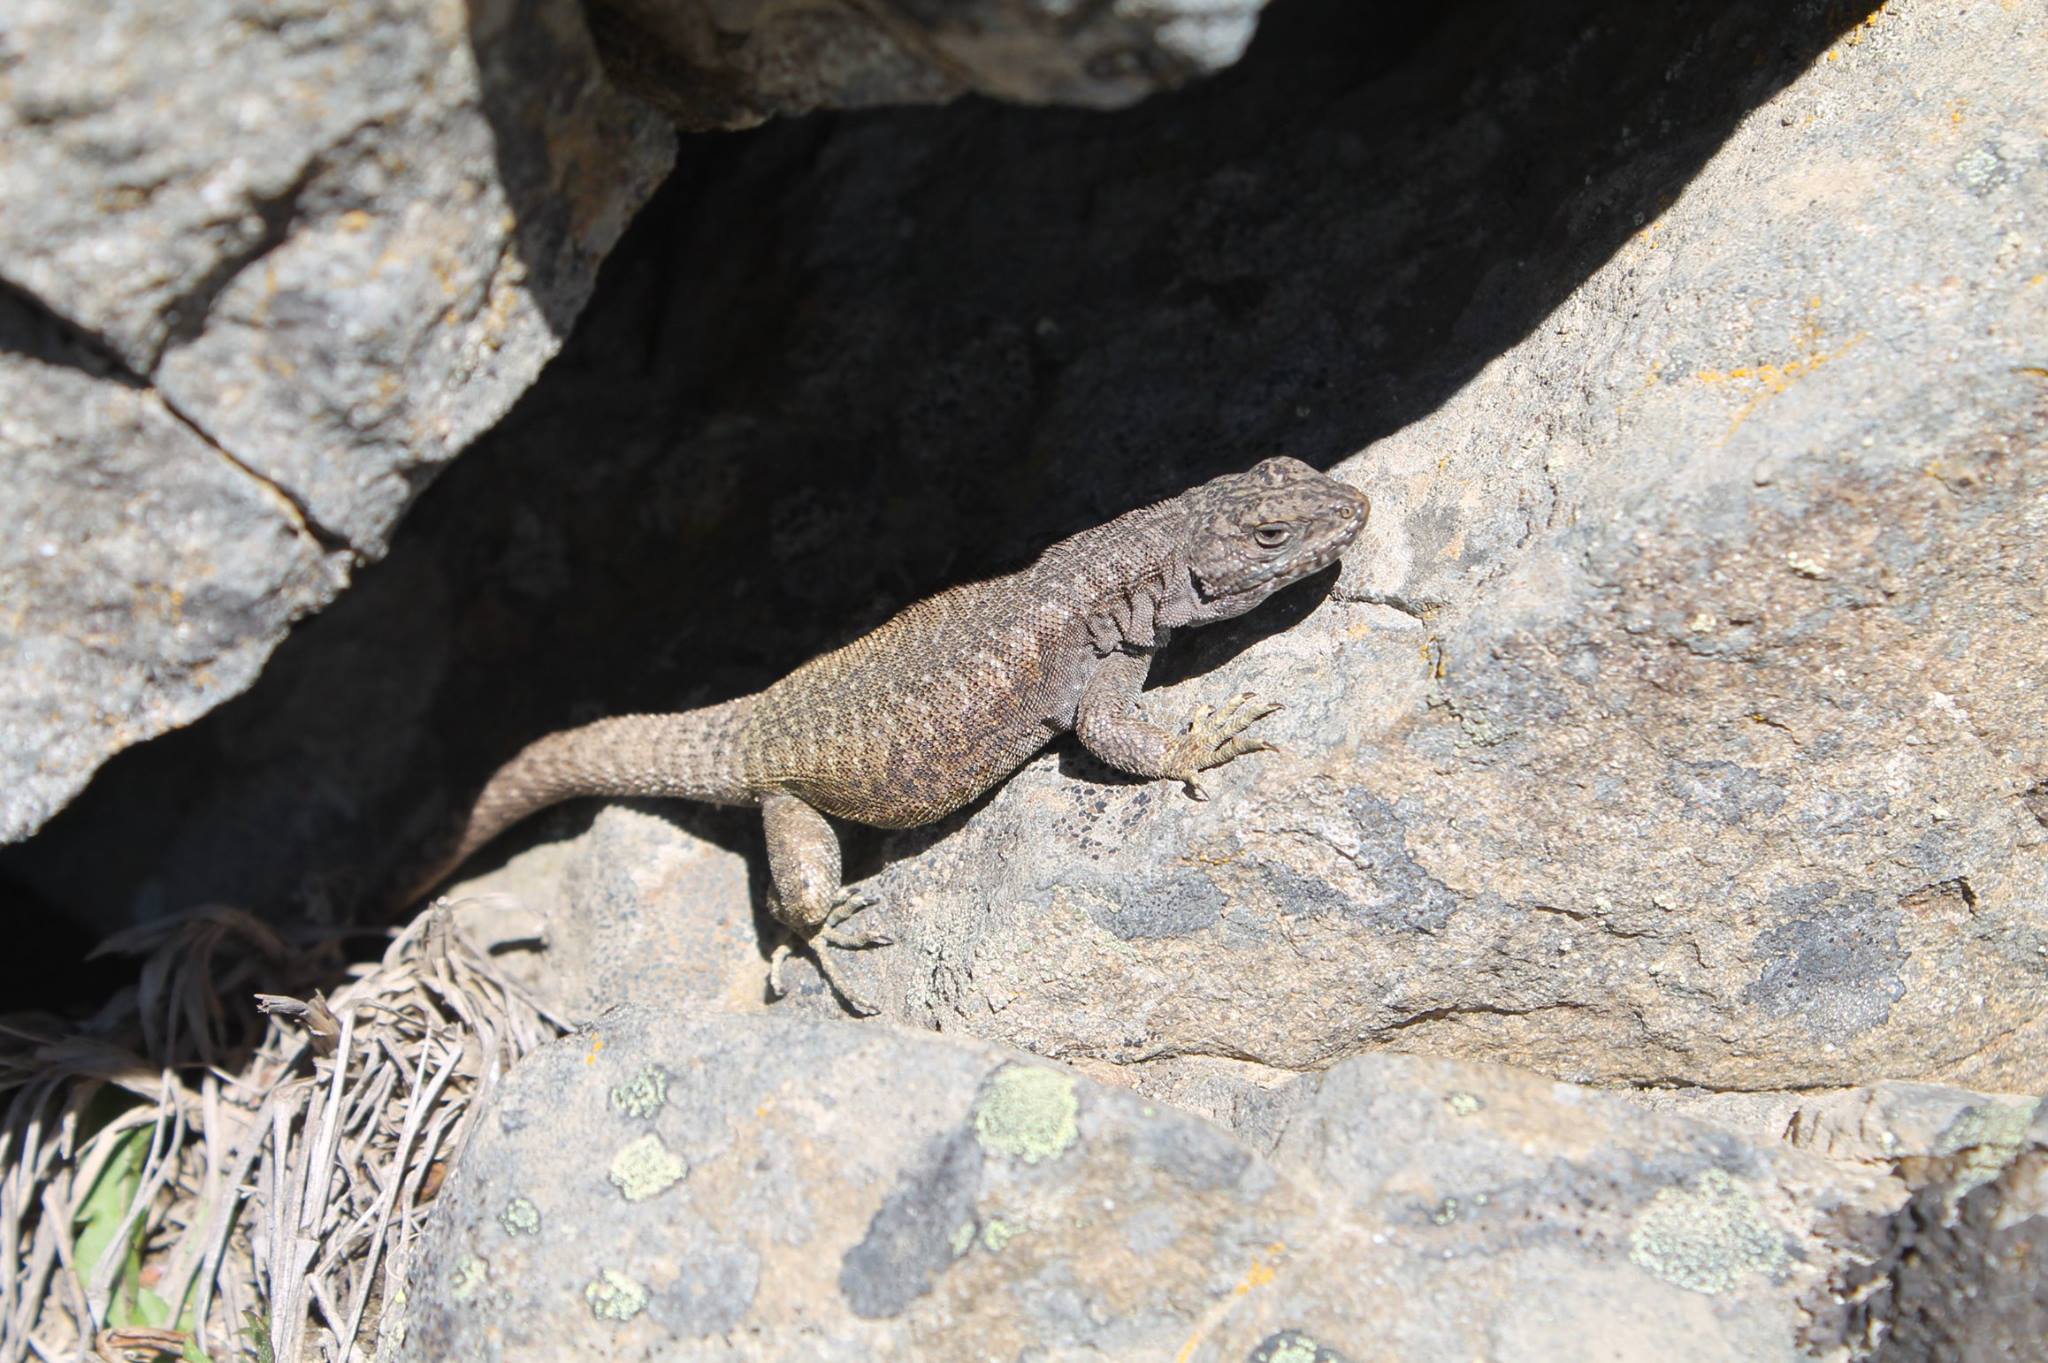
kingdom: Animalia
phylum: Chordata
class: Squamata
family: Liolaemidae
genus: Liolaemus
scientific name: Liolaemus elongatus
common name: Elongate tree iguana
